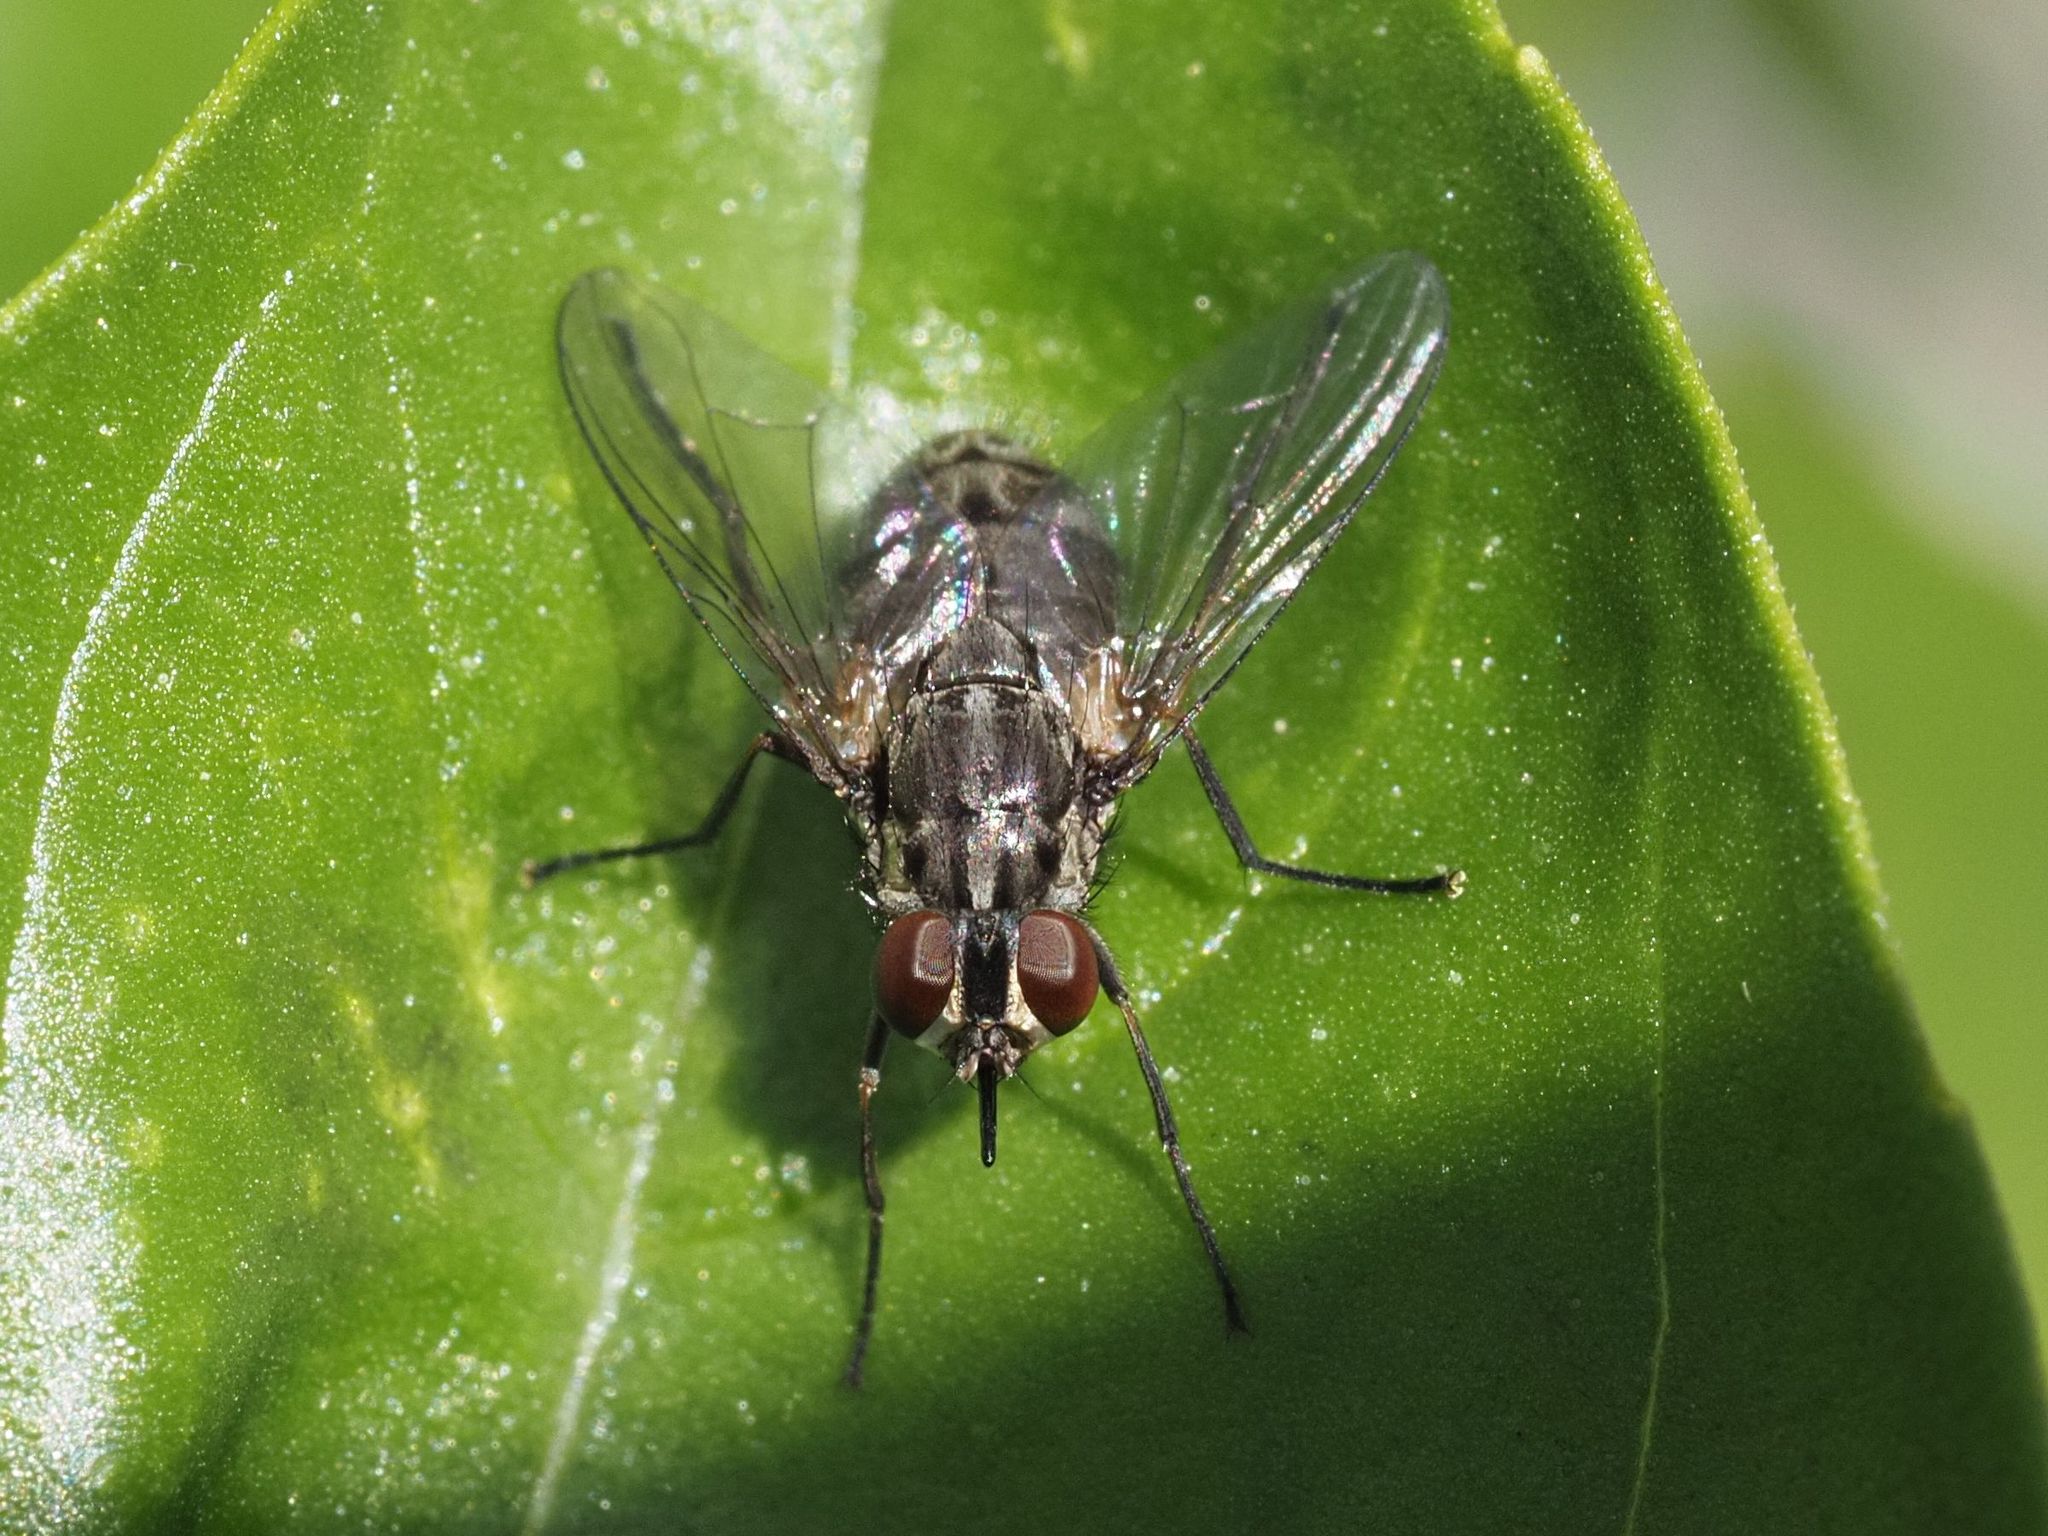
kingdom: Animalia
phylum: Arthropoda
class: Insecta
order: Diptera
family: Muscidae
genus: Stomoxys
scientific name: Stomoxys calcitrans
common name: Stable fly
